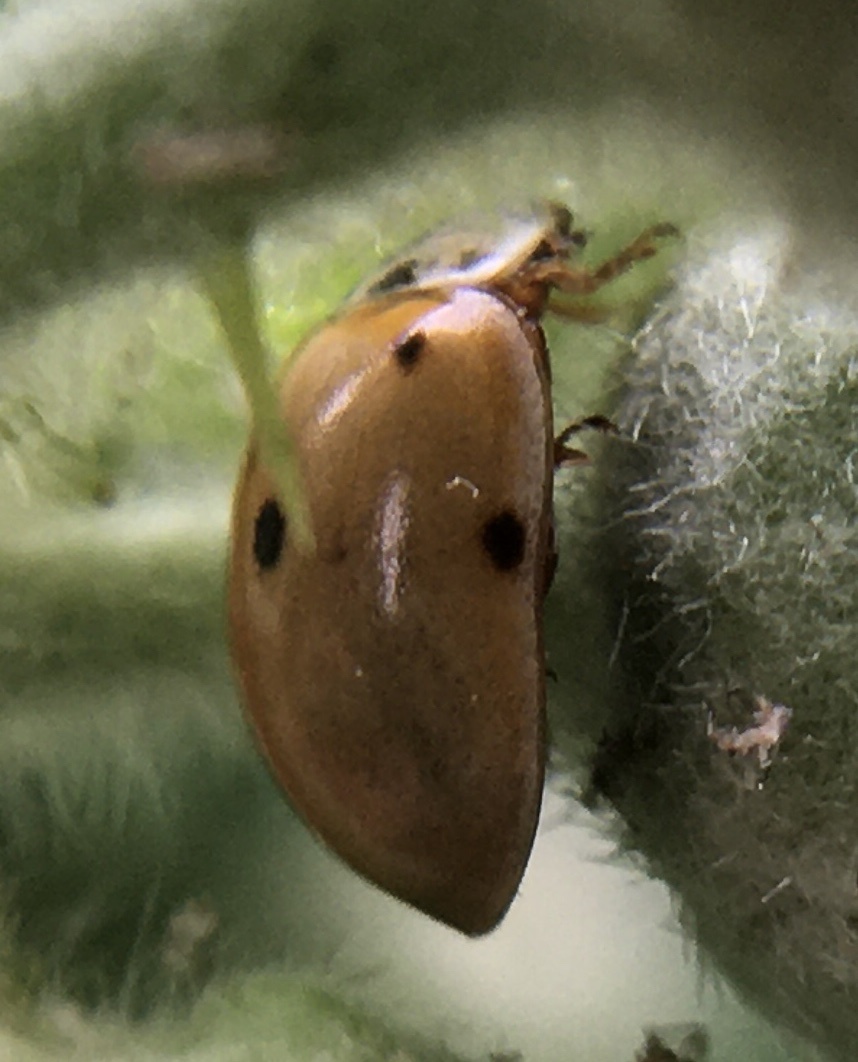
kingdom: Animalia
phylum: Arthropoda
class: Insecta
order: Coleoptera
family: Coccinellidae
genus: Adalia
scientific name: Adalia decempunctata
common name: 10-spot ladybird
